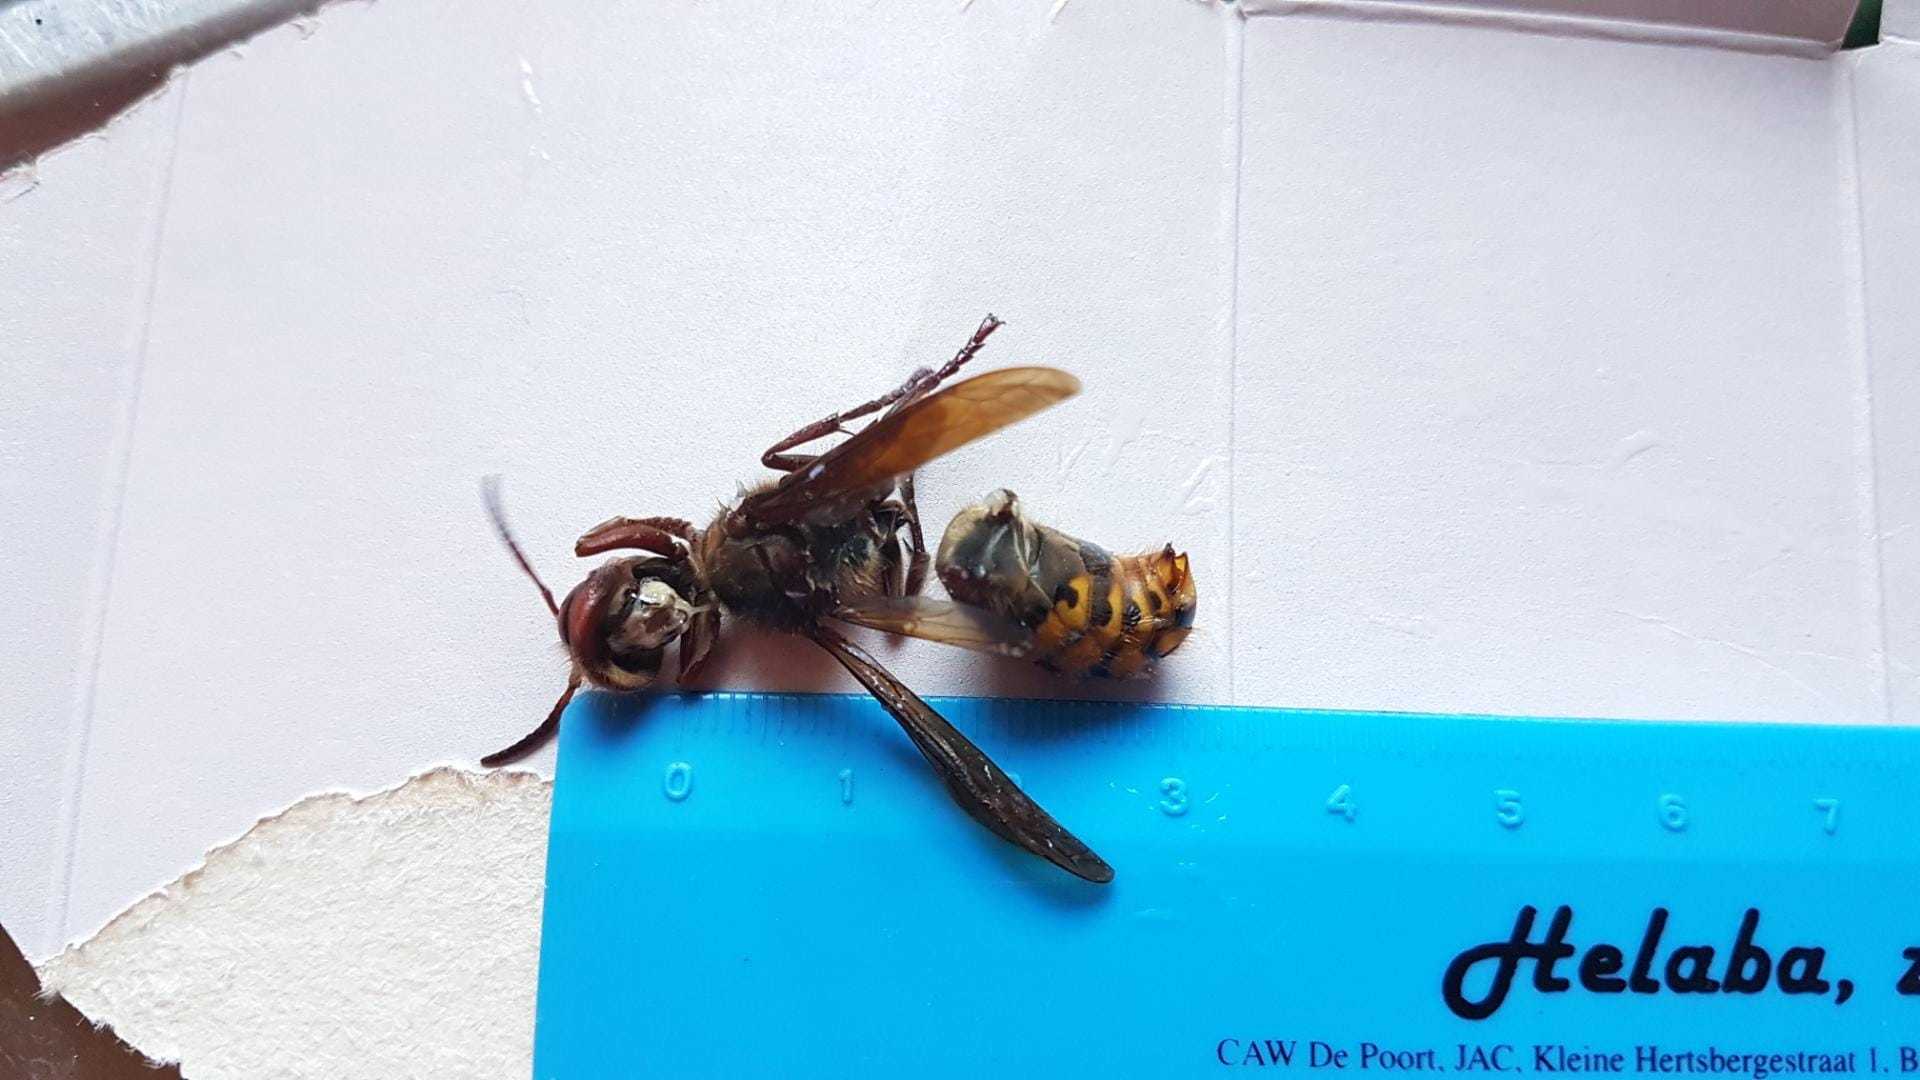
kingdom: Animalia
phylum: Arthropoda
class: Insecta
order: Hymenoptera
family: Vespidae
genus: Vespa
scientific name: Vespa crabro
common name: Hornet
